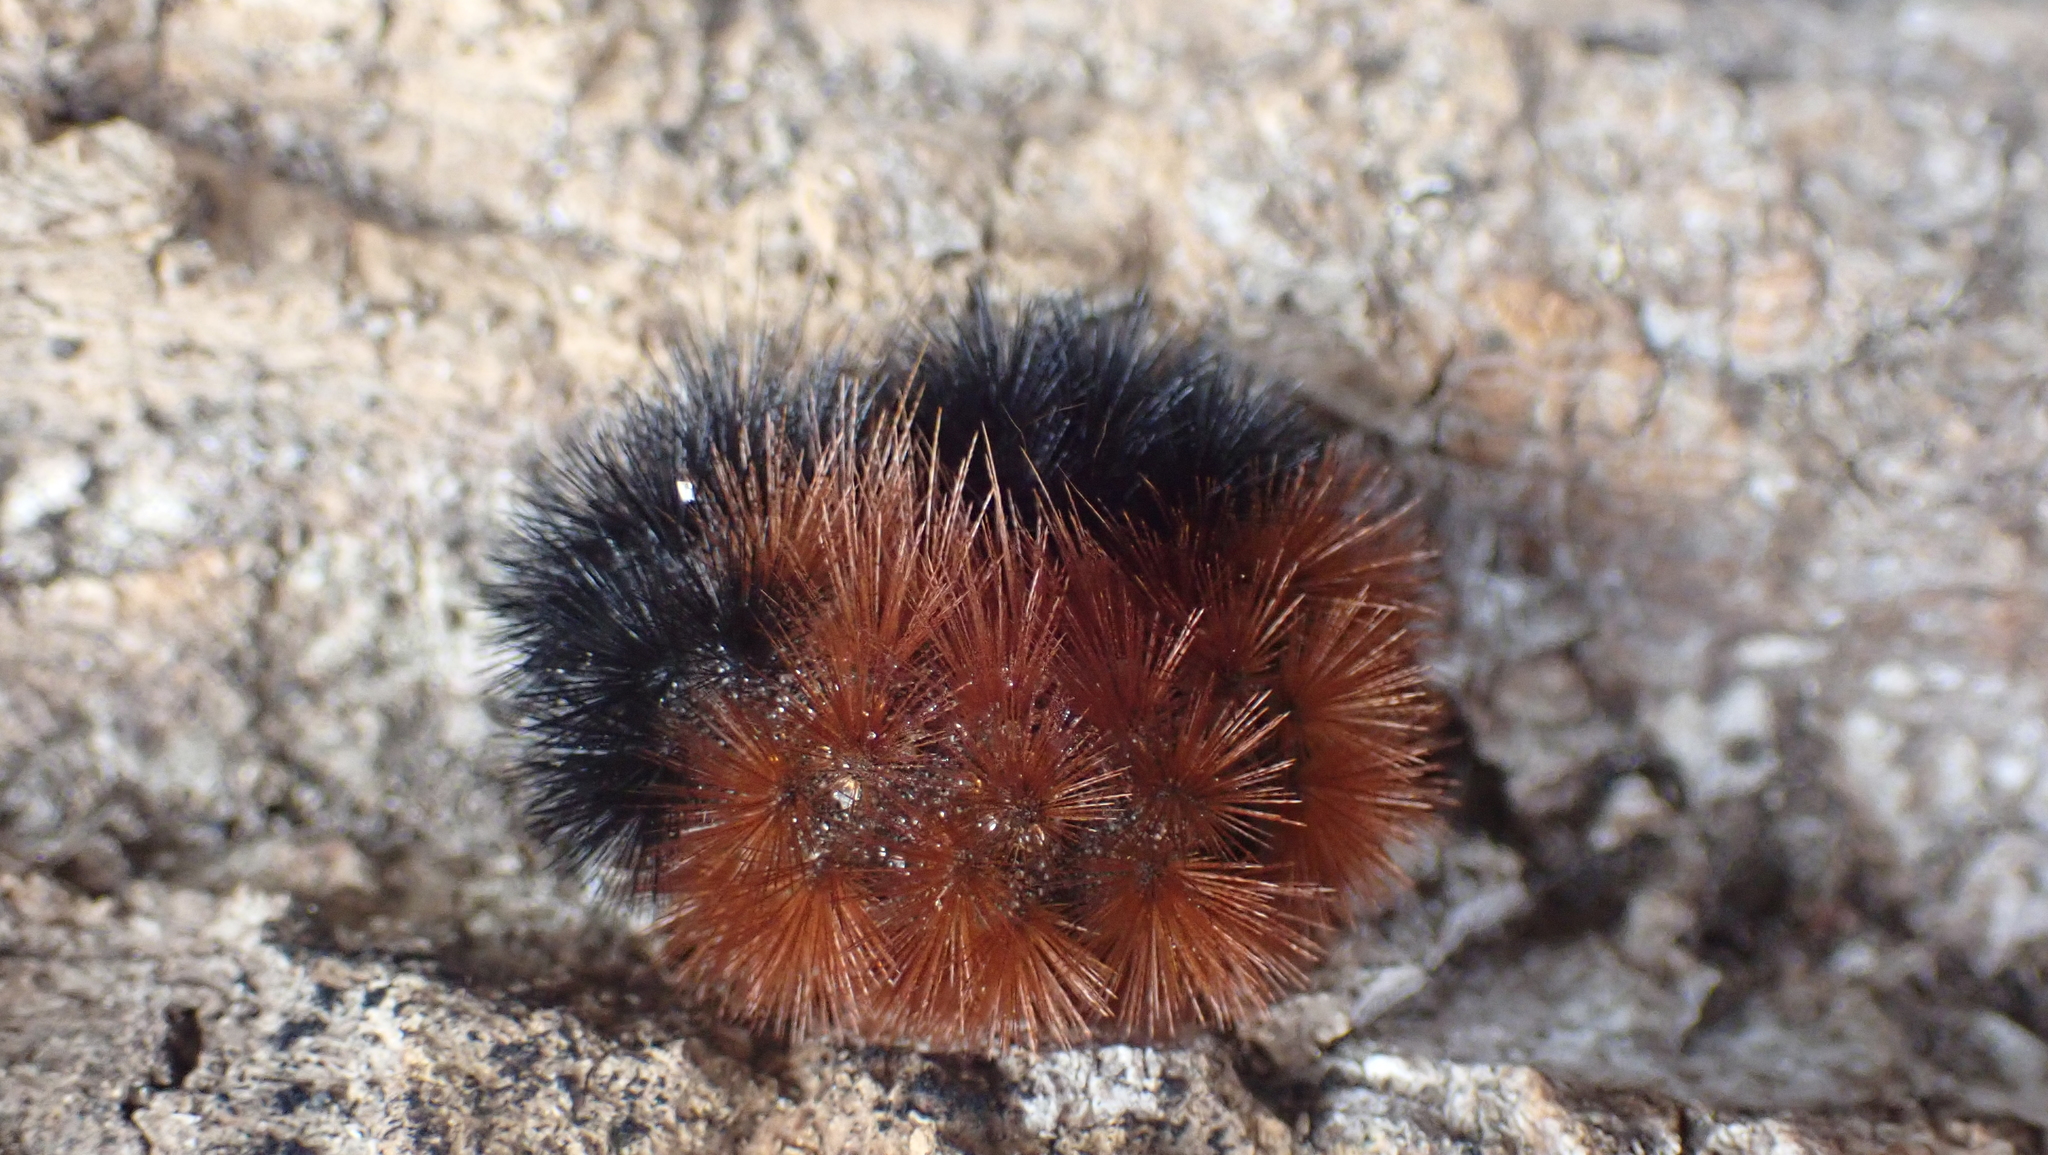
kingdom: Animalia
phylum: Arthropoda
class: Insecta
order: Lepidoptera
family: Erebidae
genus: Pyrrharctia
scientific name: Pyrrharctia isabella
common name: Isabella tiger moth
